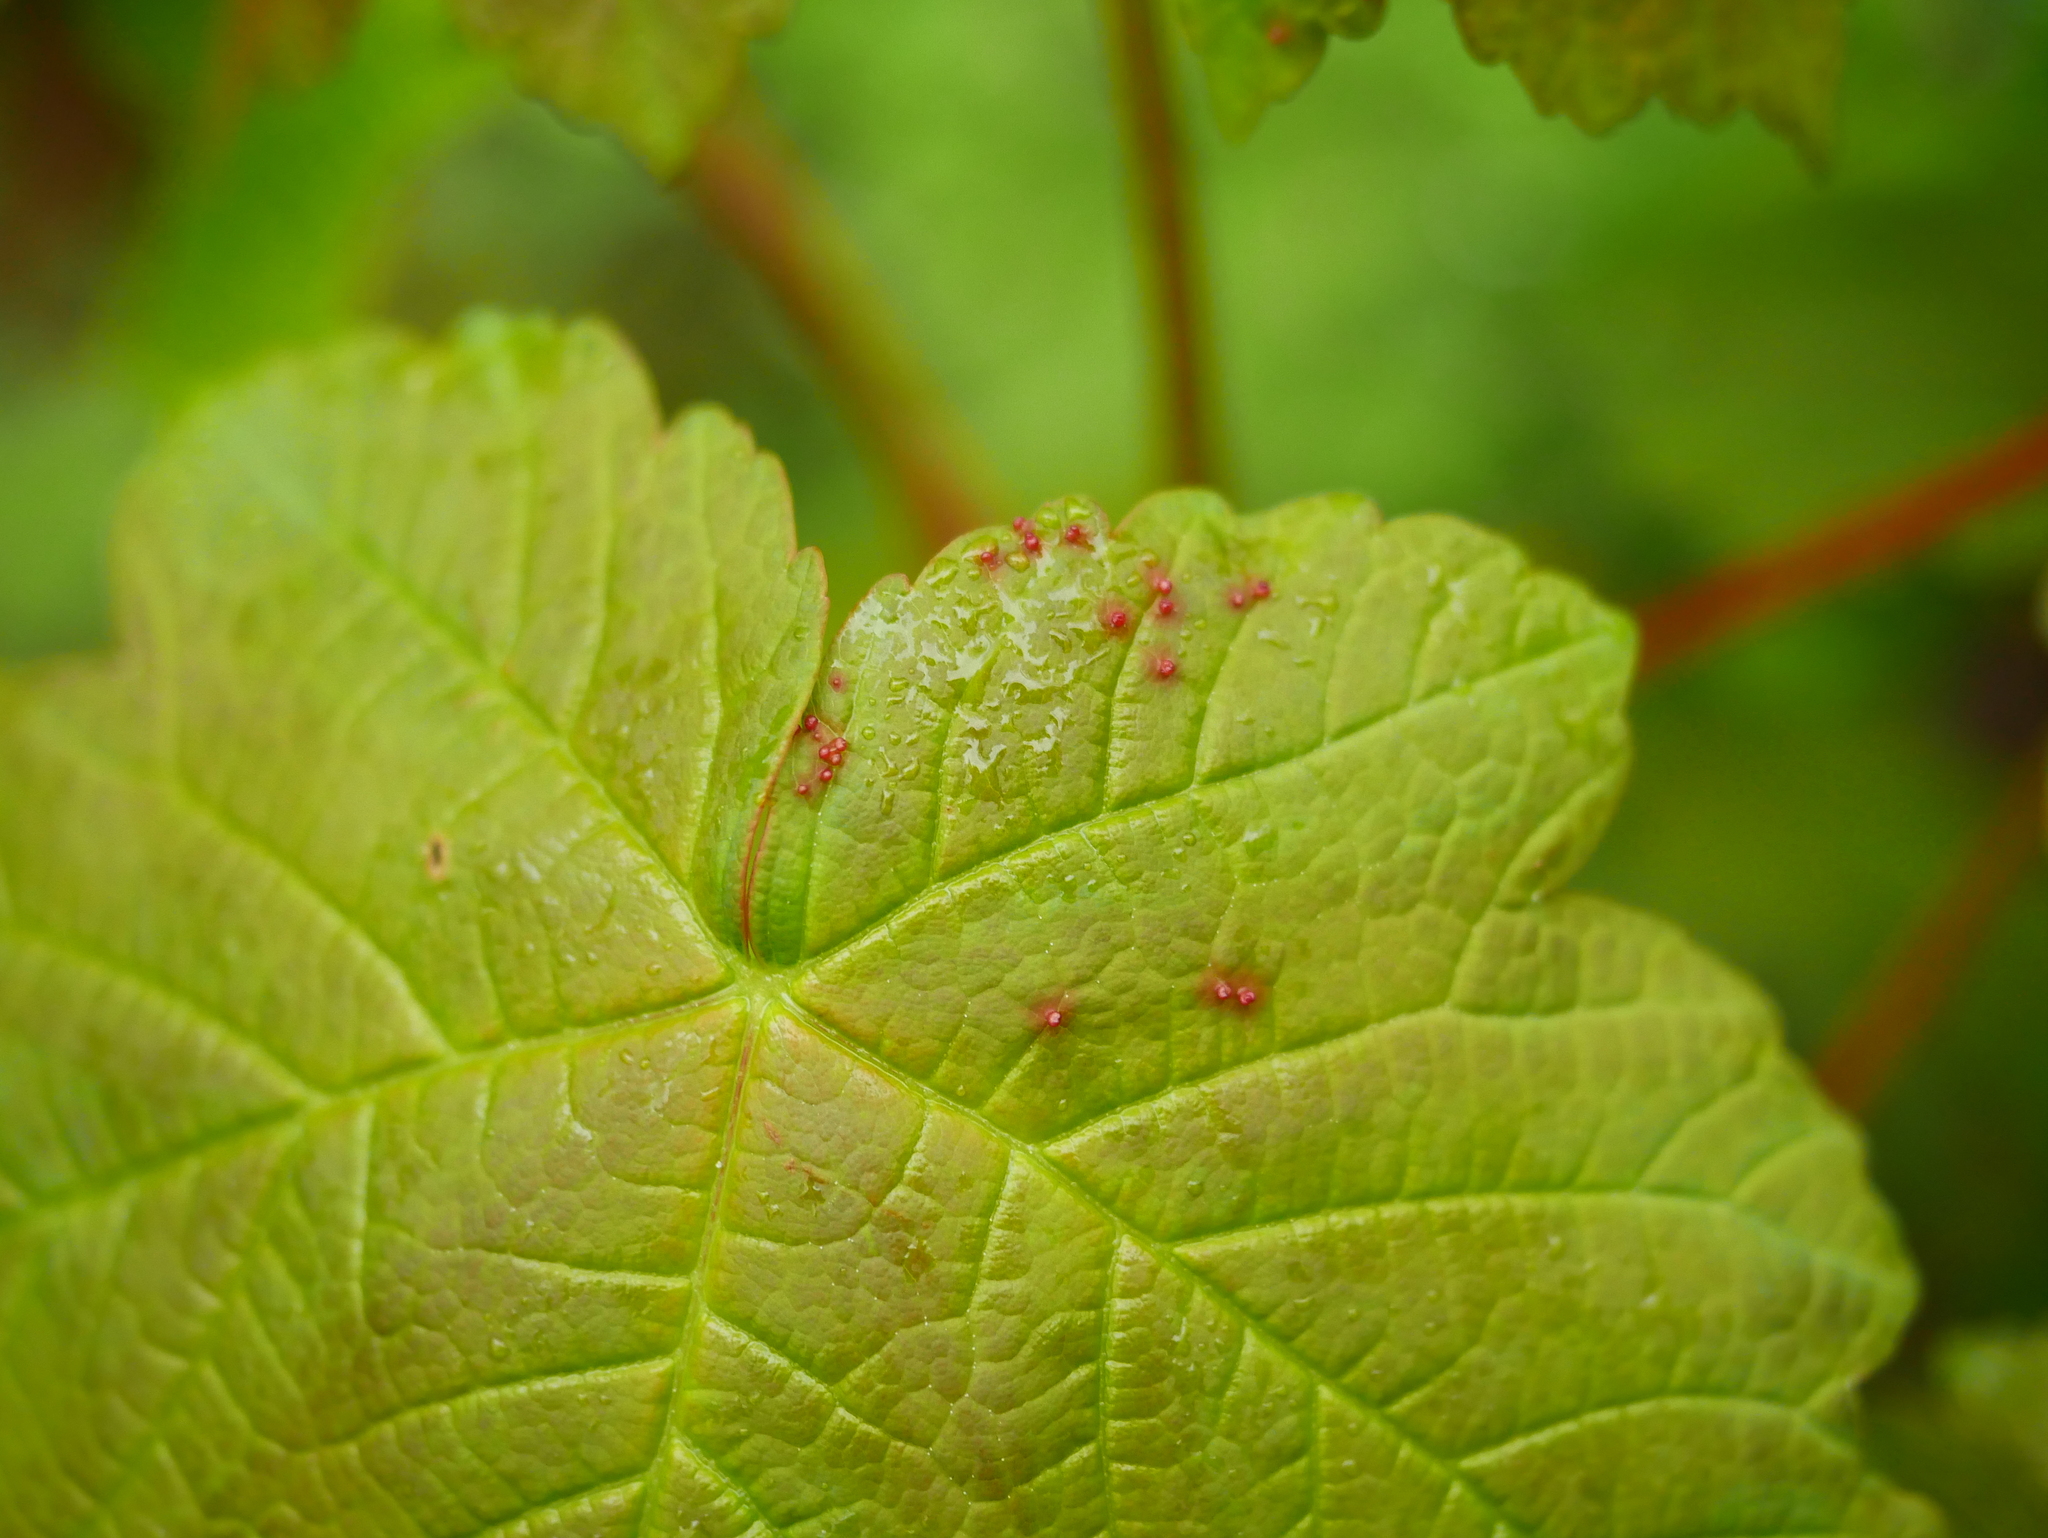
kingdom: Animalia
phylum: Arthropoda
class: Arachnida
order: Trombidiformes
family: Eriophyidae
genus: Aceria
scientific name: Aceria cephaloneus
